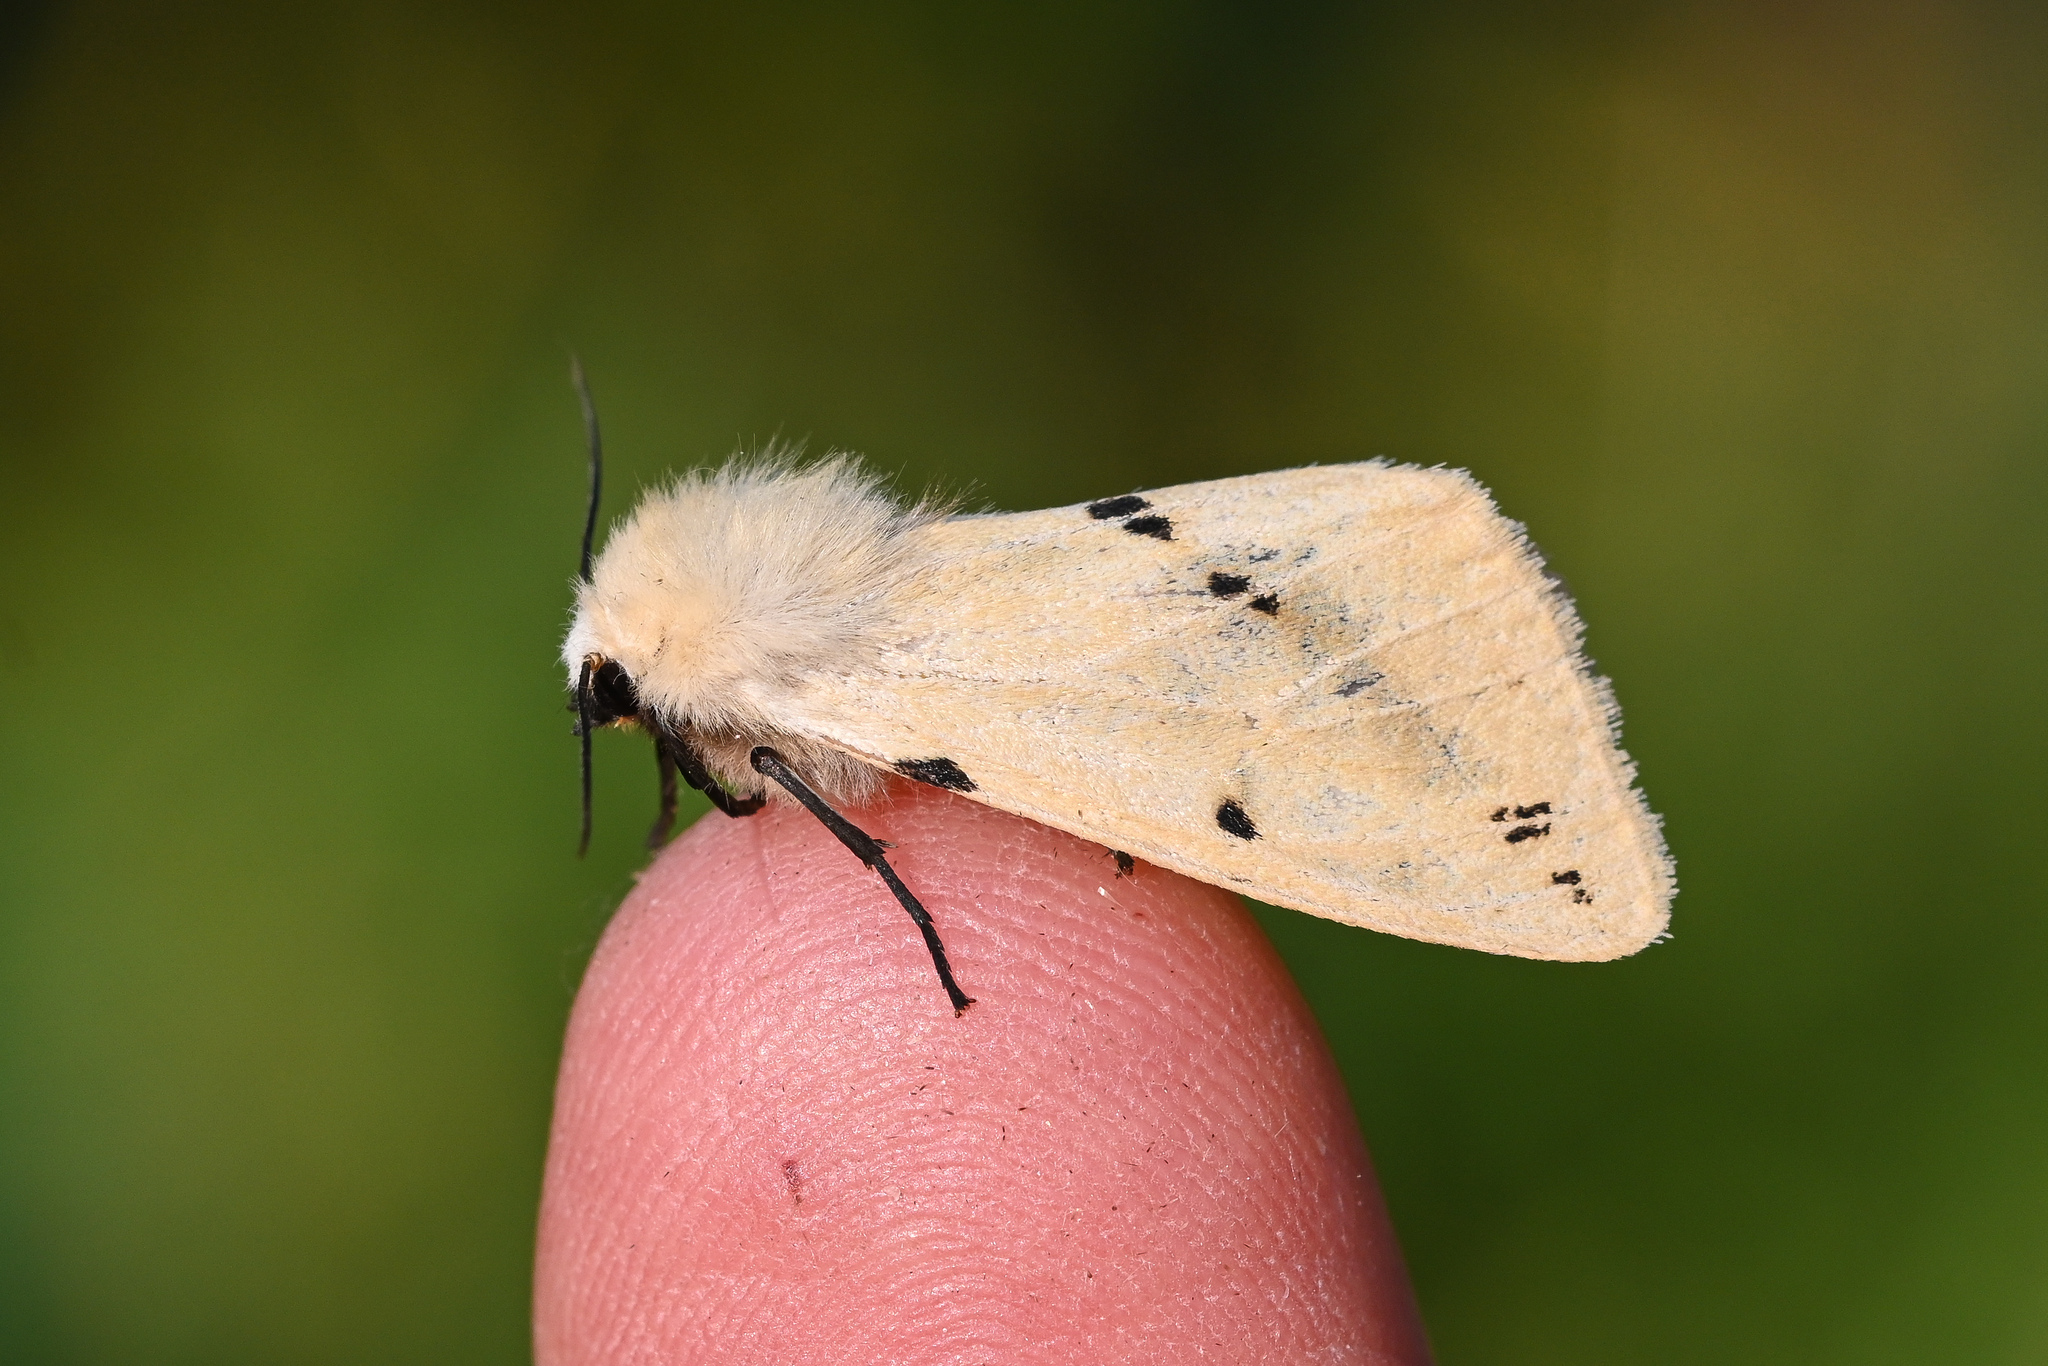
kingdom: Animalia
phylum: Arthropoda
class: Insecta
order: Lepidoptera
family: Erebidae
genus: Spilarctia
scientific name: Spilarctia lutea
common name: Buff ermine
